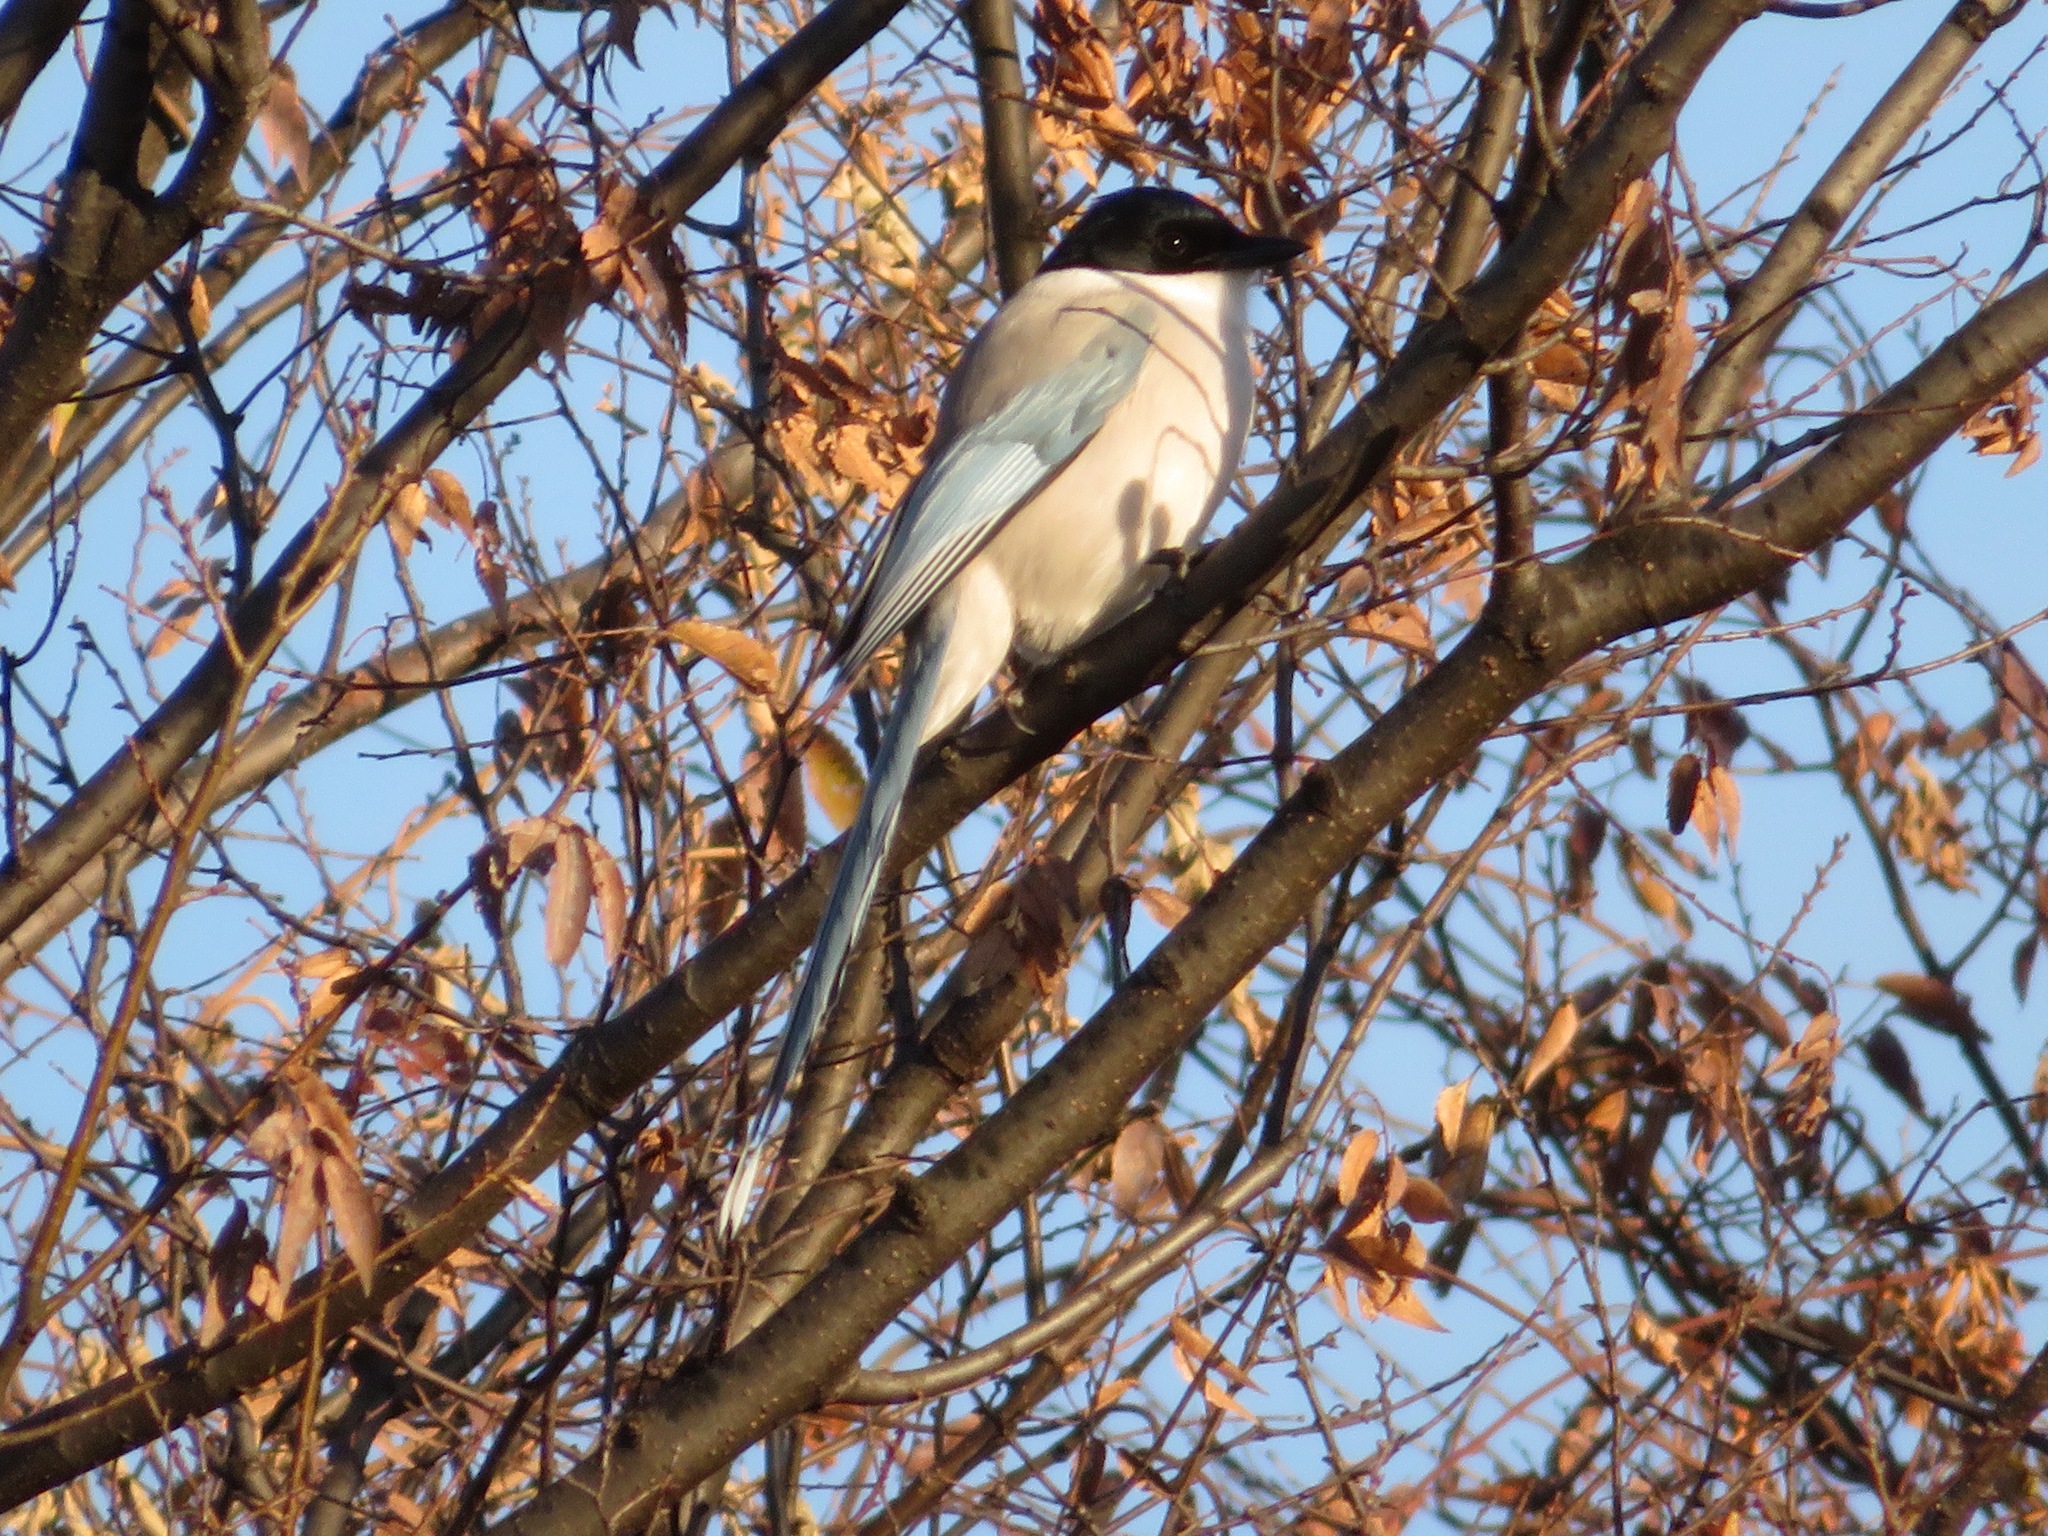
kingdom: Animalia
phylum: Chordata
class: Aves
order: Passeriformes
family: Corvidae
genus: Cyanopica
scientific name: Cyanopica cyanus
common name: Azure-winged magpie
